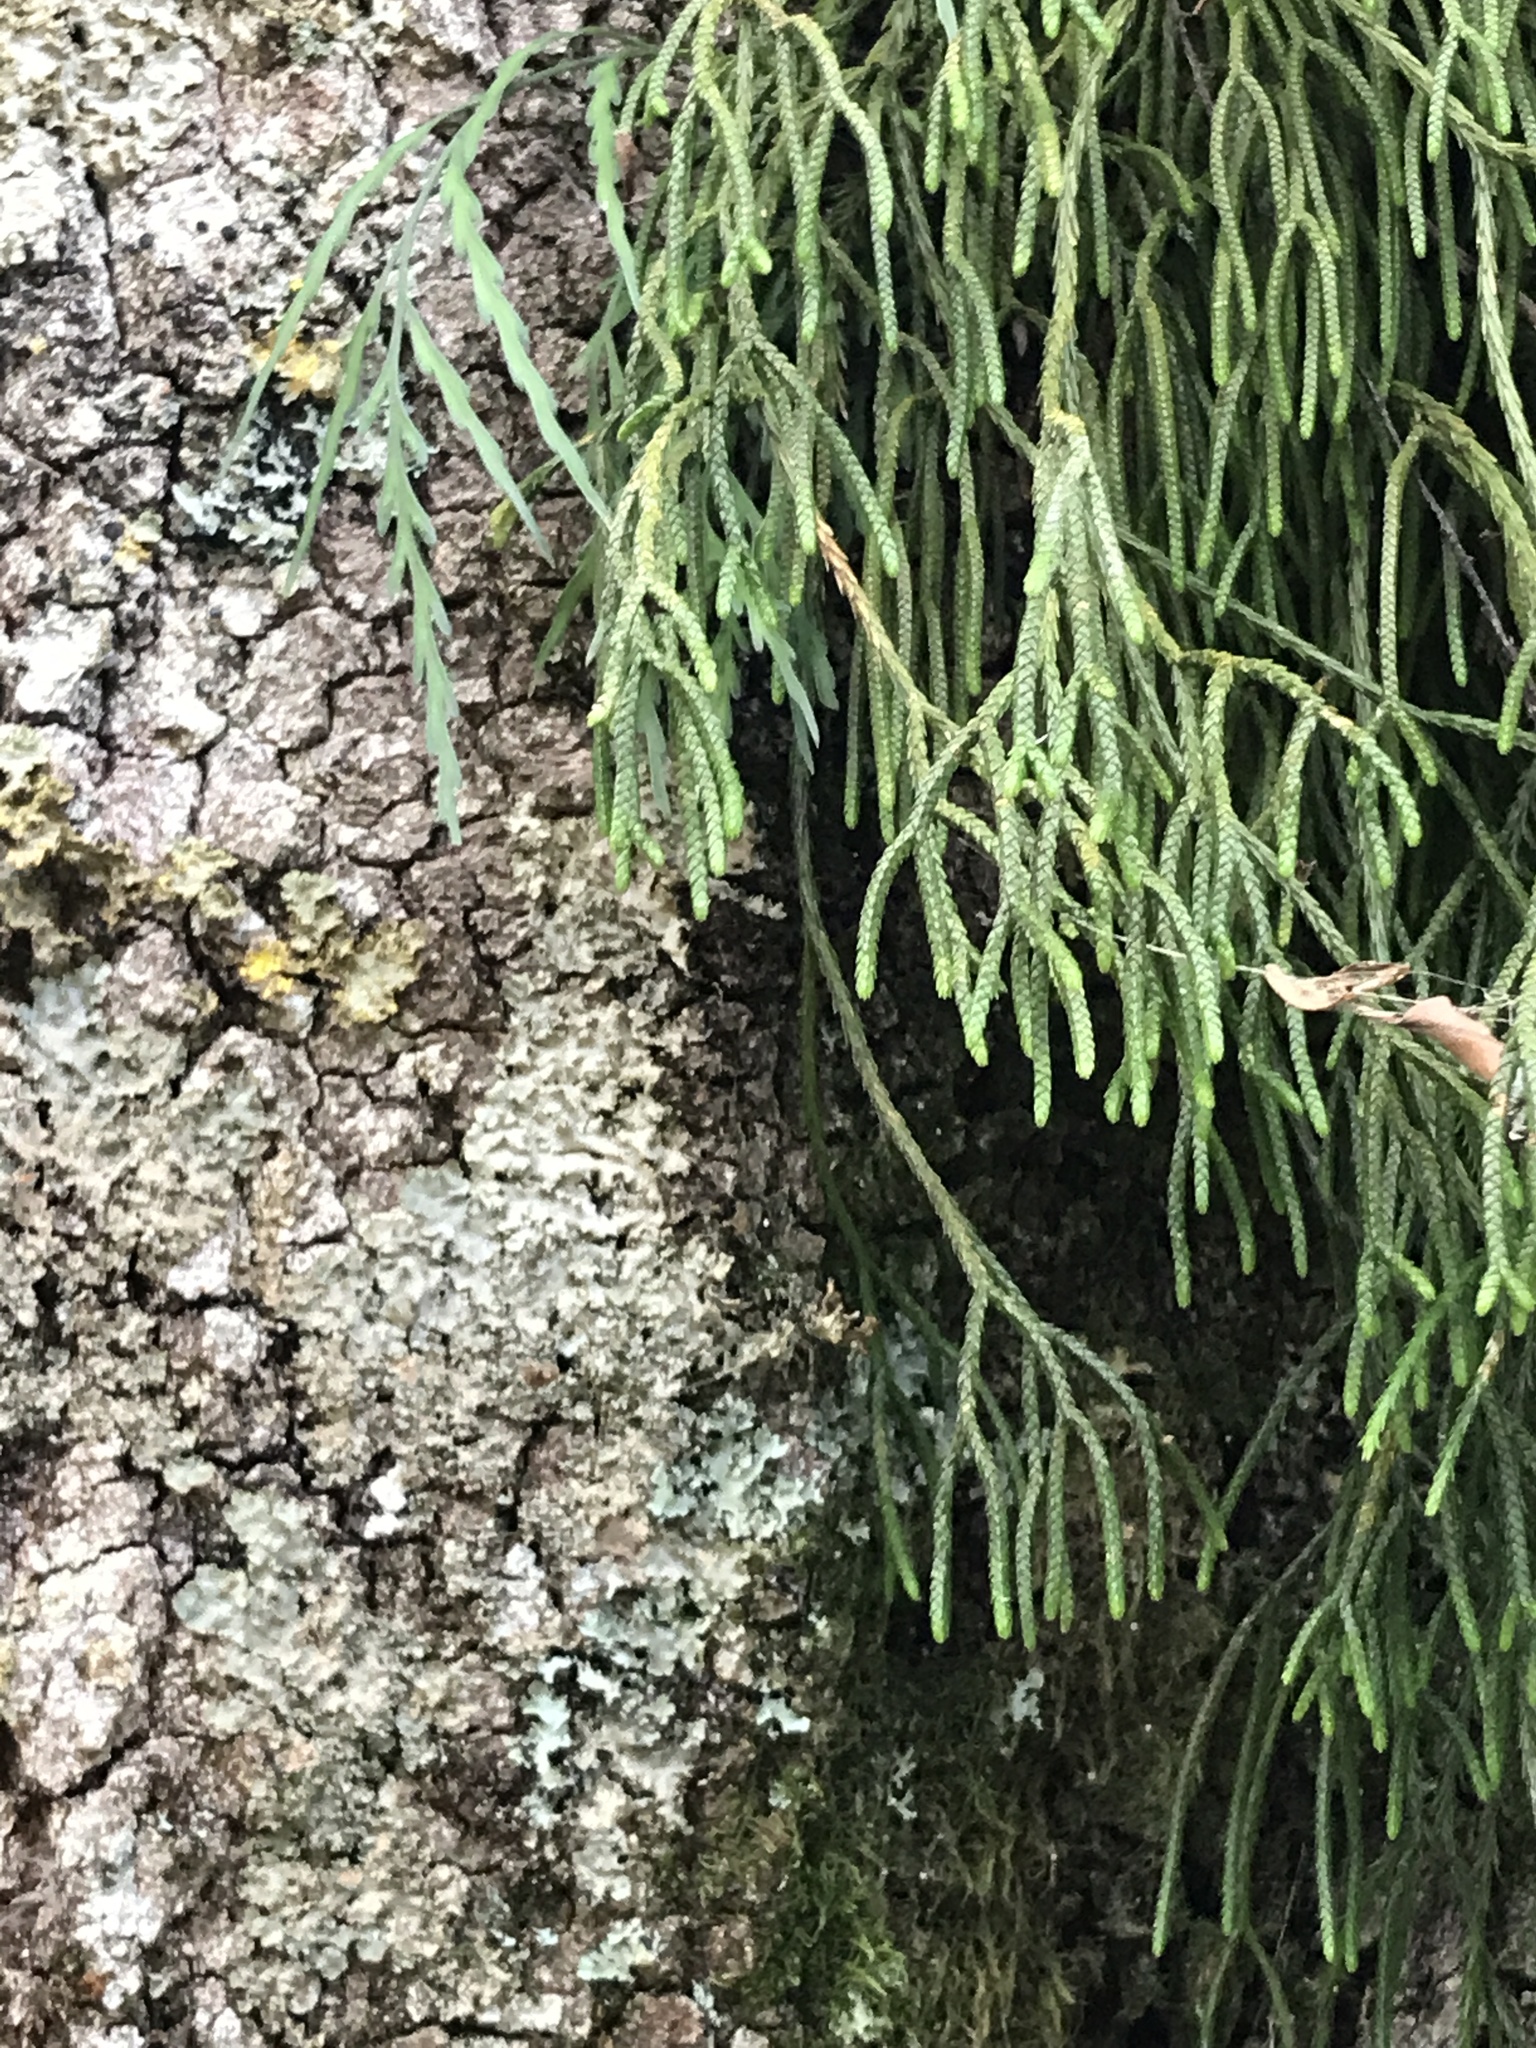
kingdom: Plantae
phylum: Tracheophyta
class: Lycopodiopsida
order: Lycopodiales
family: Lycopodiaceae
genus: Phlegmariurus
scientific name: Phlegmariurus billardierei
